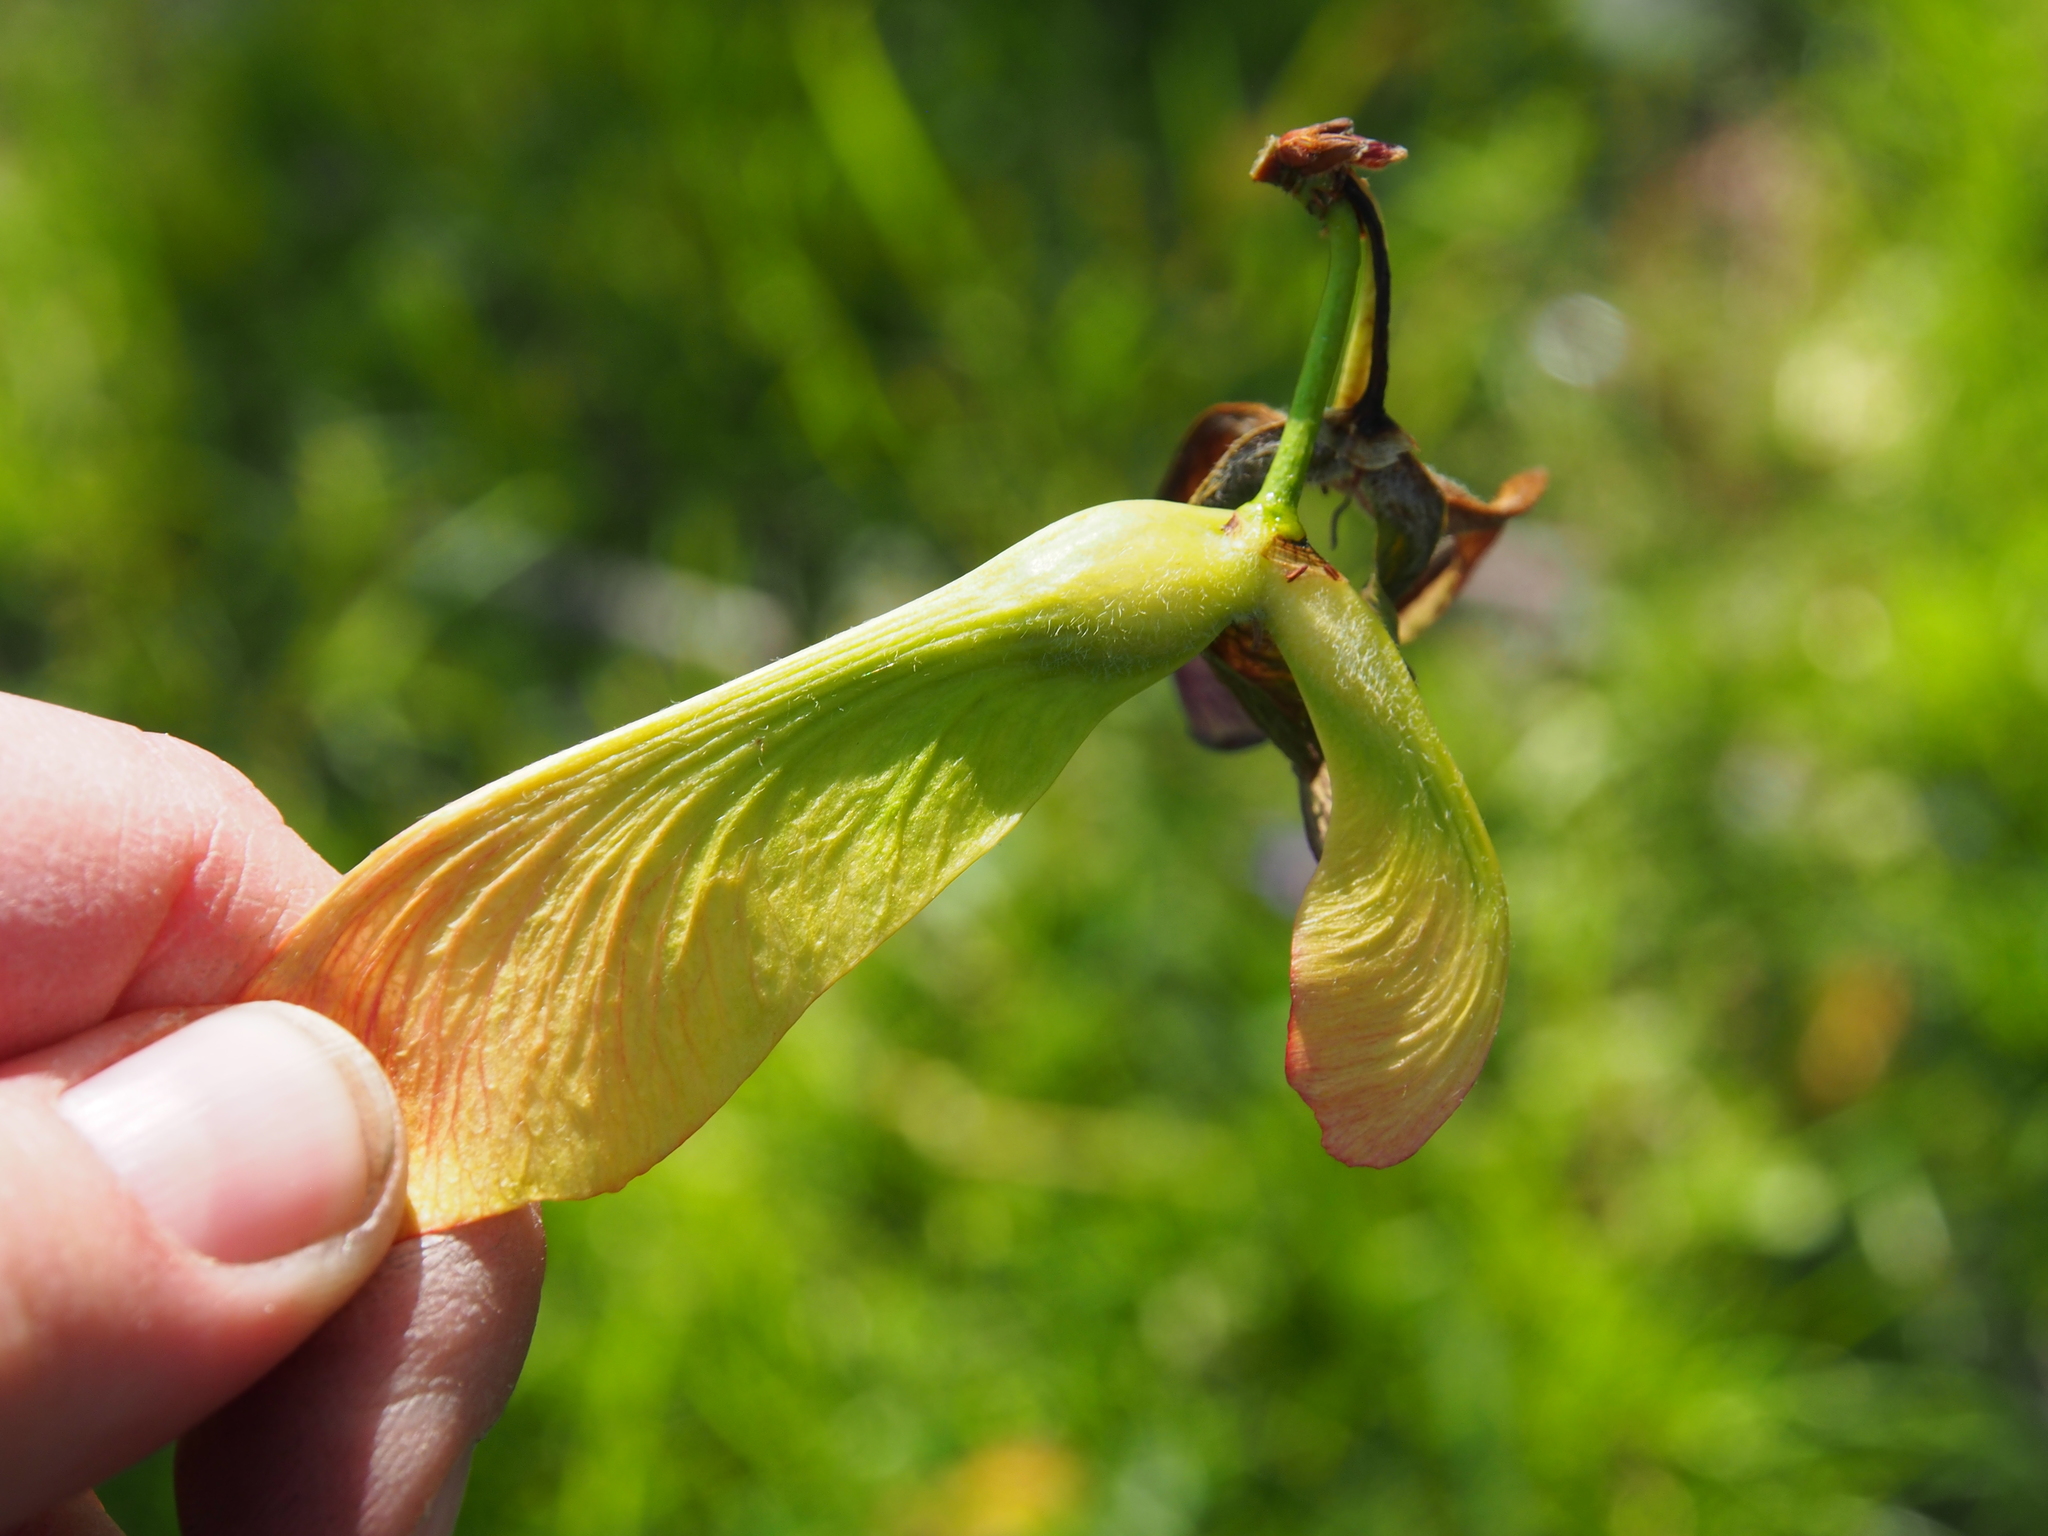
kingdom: Plantae
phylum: Tracheophyta
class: Magnoliopsida
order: Sapindales
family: Sapindaceae
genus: Acer
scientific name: Acer saccharinum
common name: Silver maple
